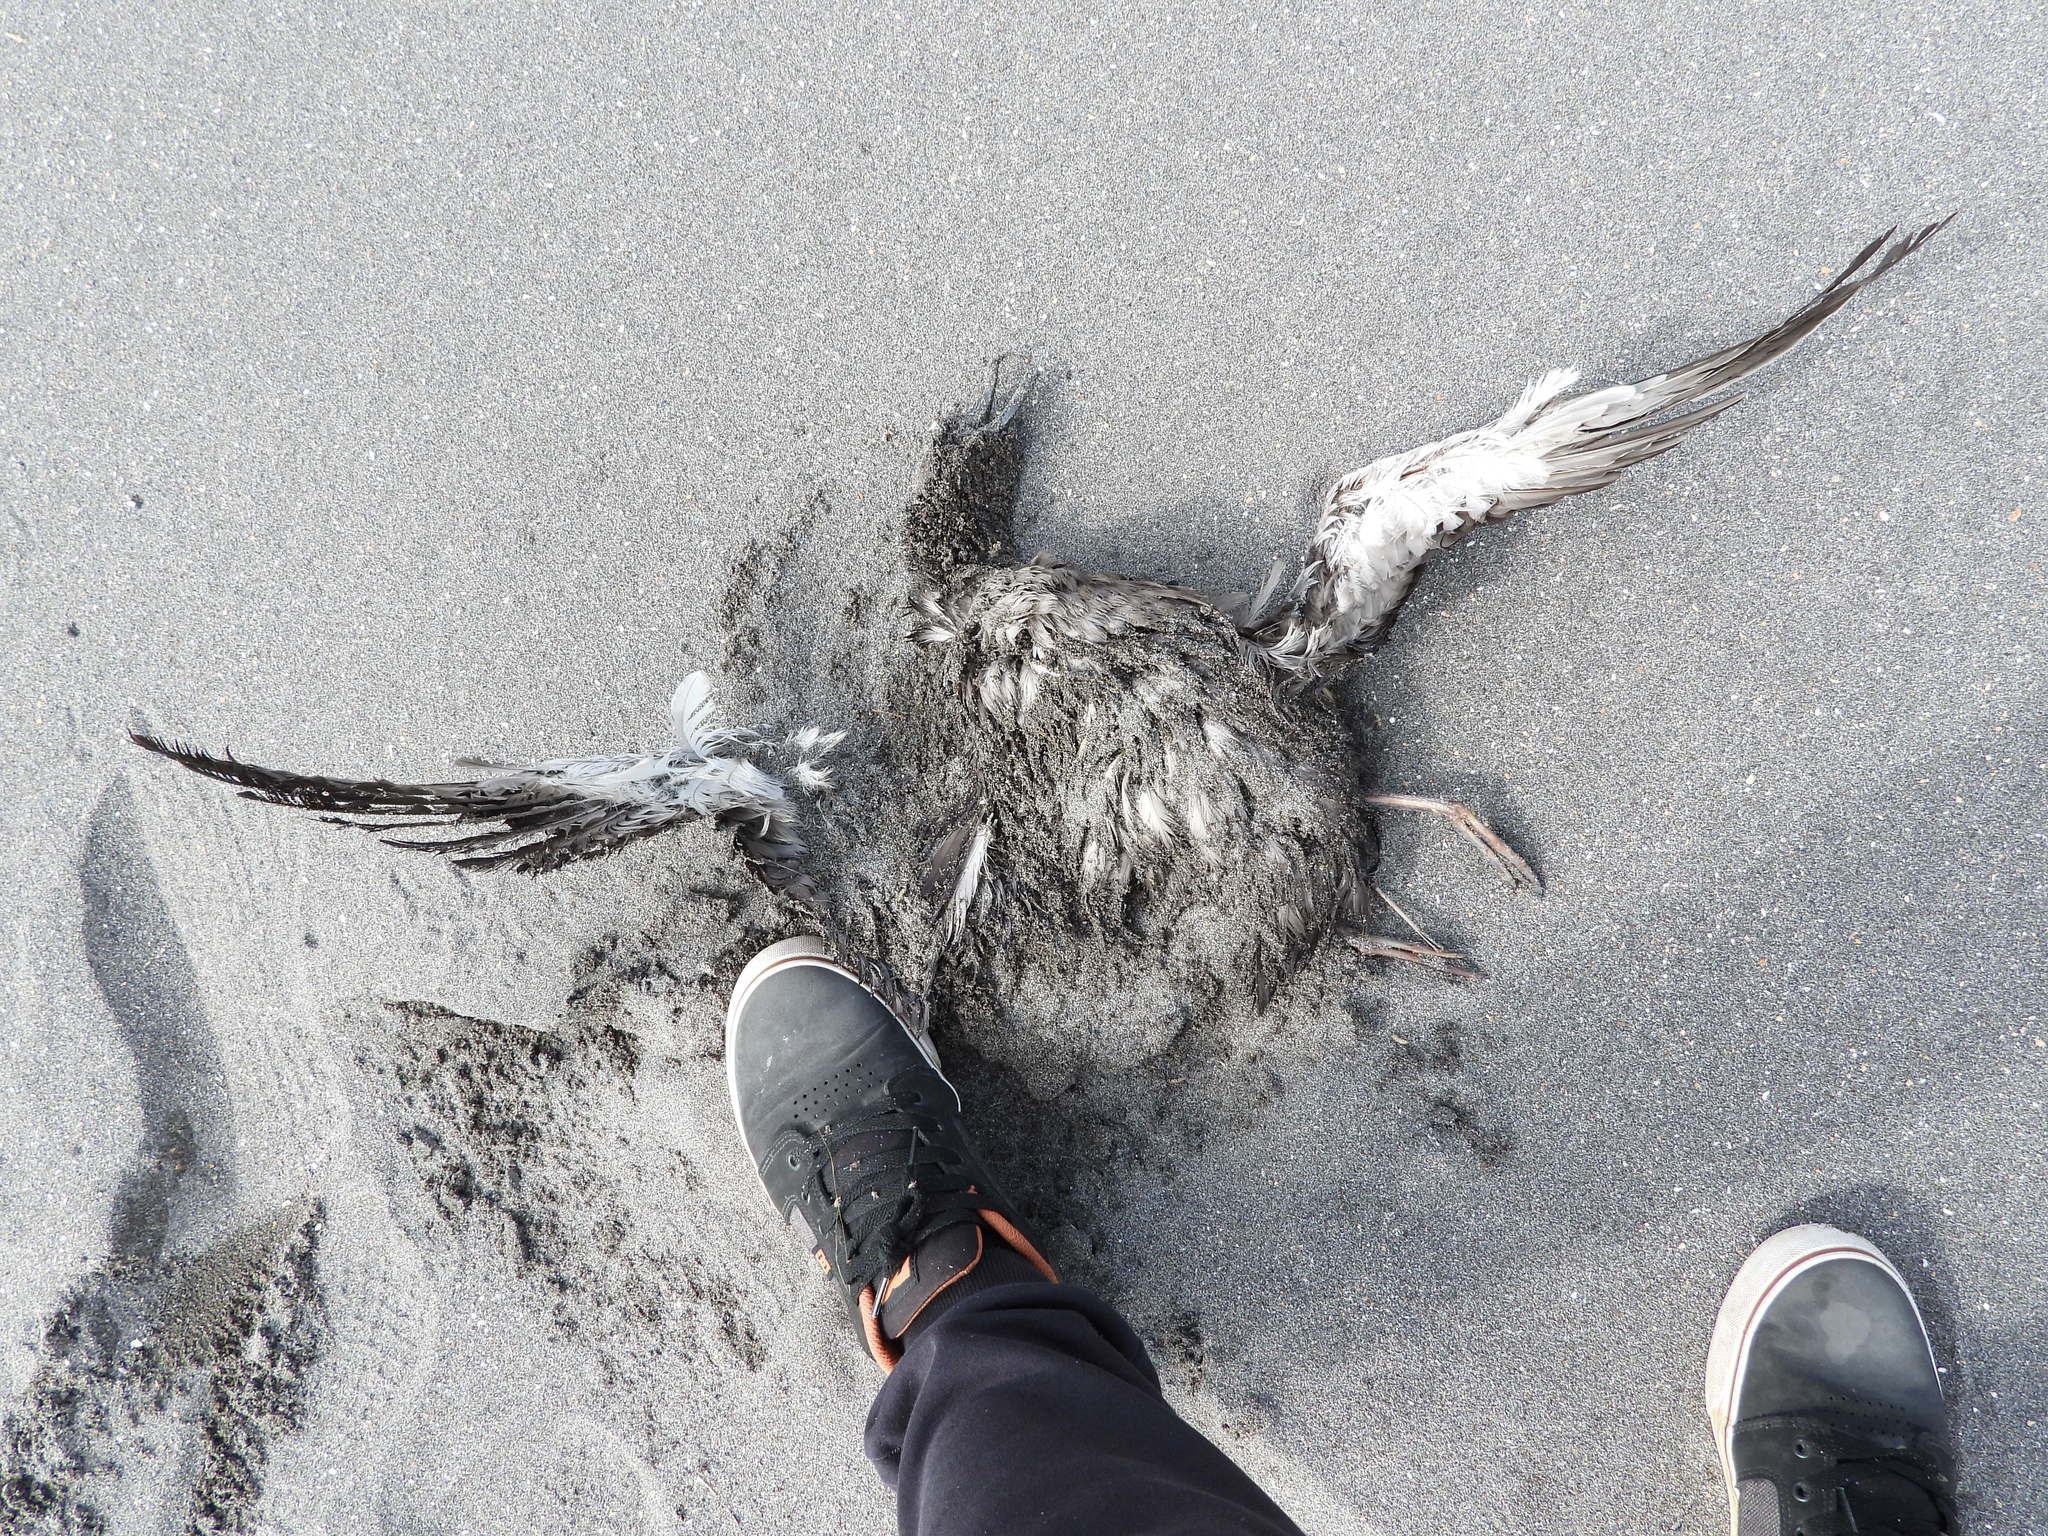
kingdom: Animalia
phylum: Chordata
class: Aves
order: Procellariiformes
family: Procellariidae
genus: Puffinus
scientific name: Puffinus griseus
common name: Sooty shearwater
